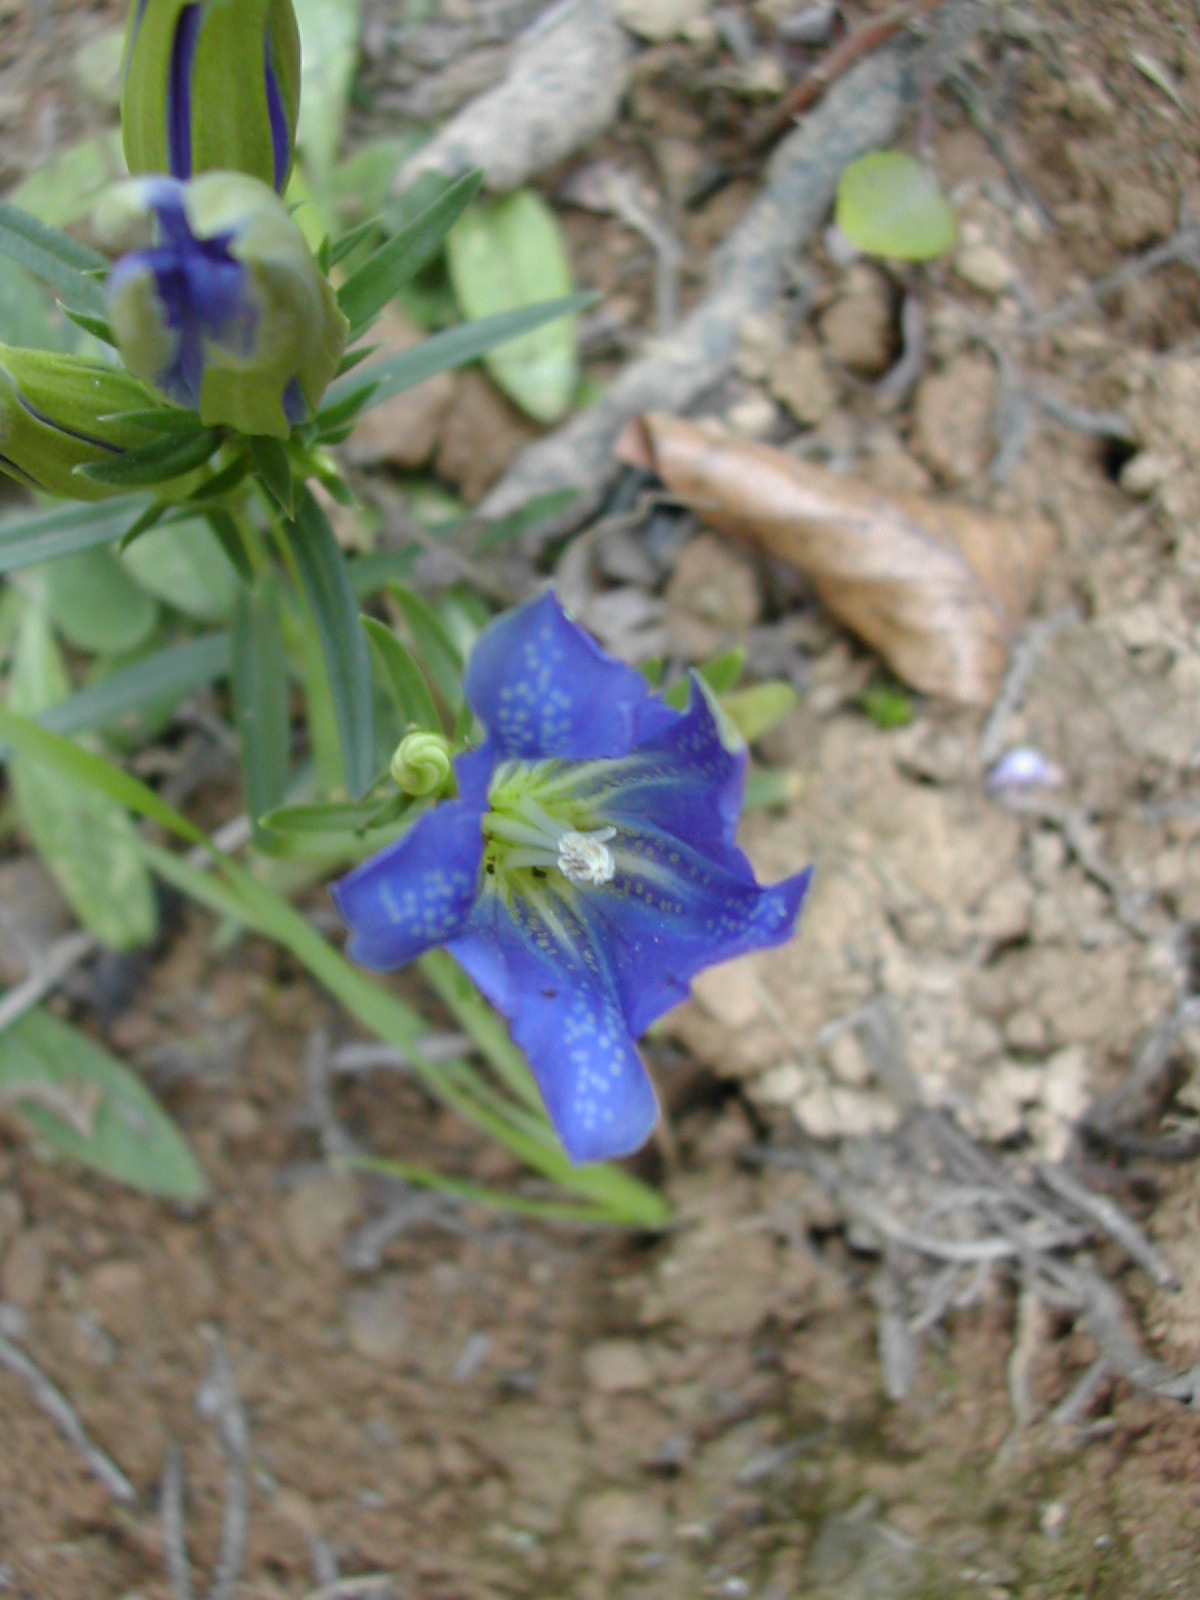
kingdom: Plantae
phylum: Tracheophyta
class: Magnoliopsida
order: Gentianales
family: Gentianaceae
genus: Gentiana
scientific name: Gentiana pneumonanthe
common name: Marsh gentian
